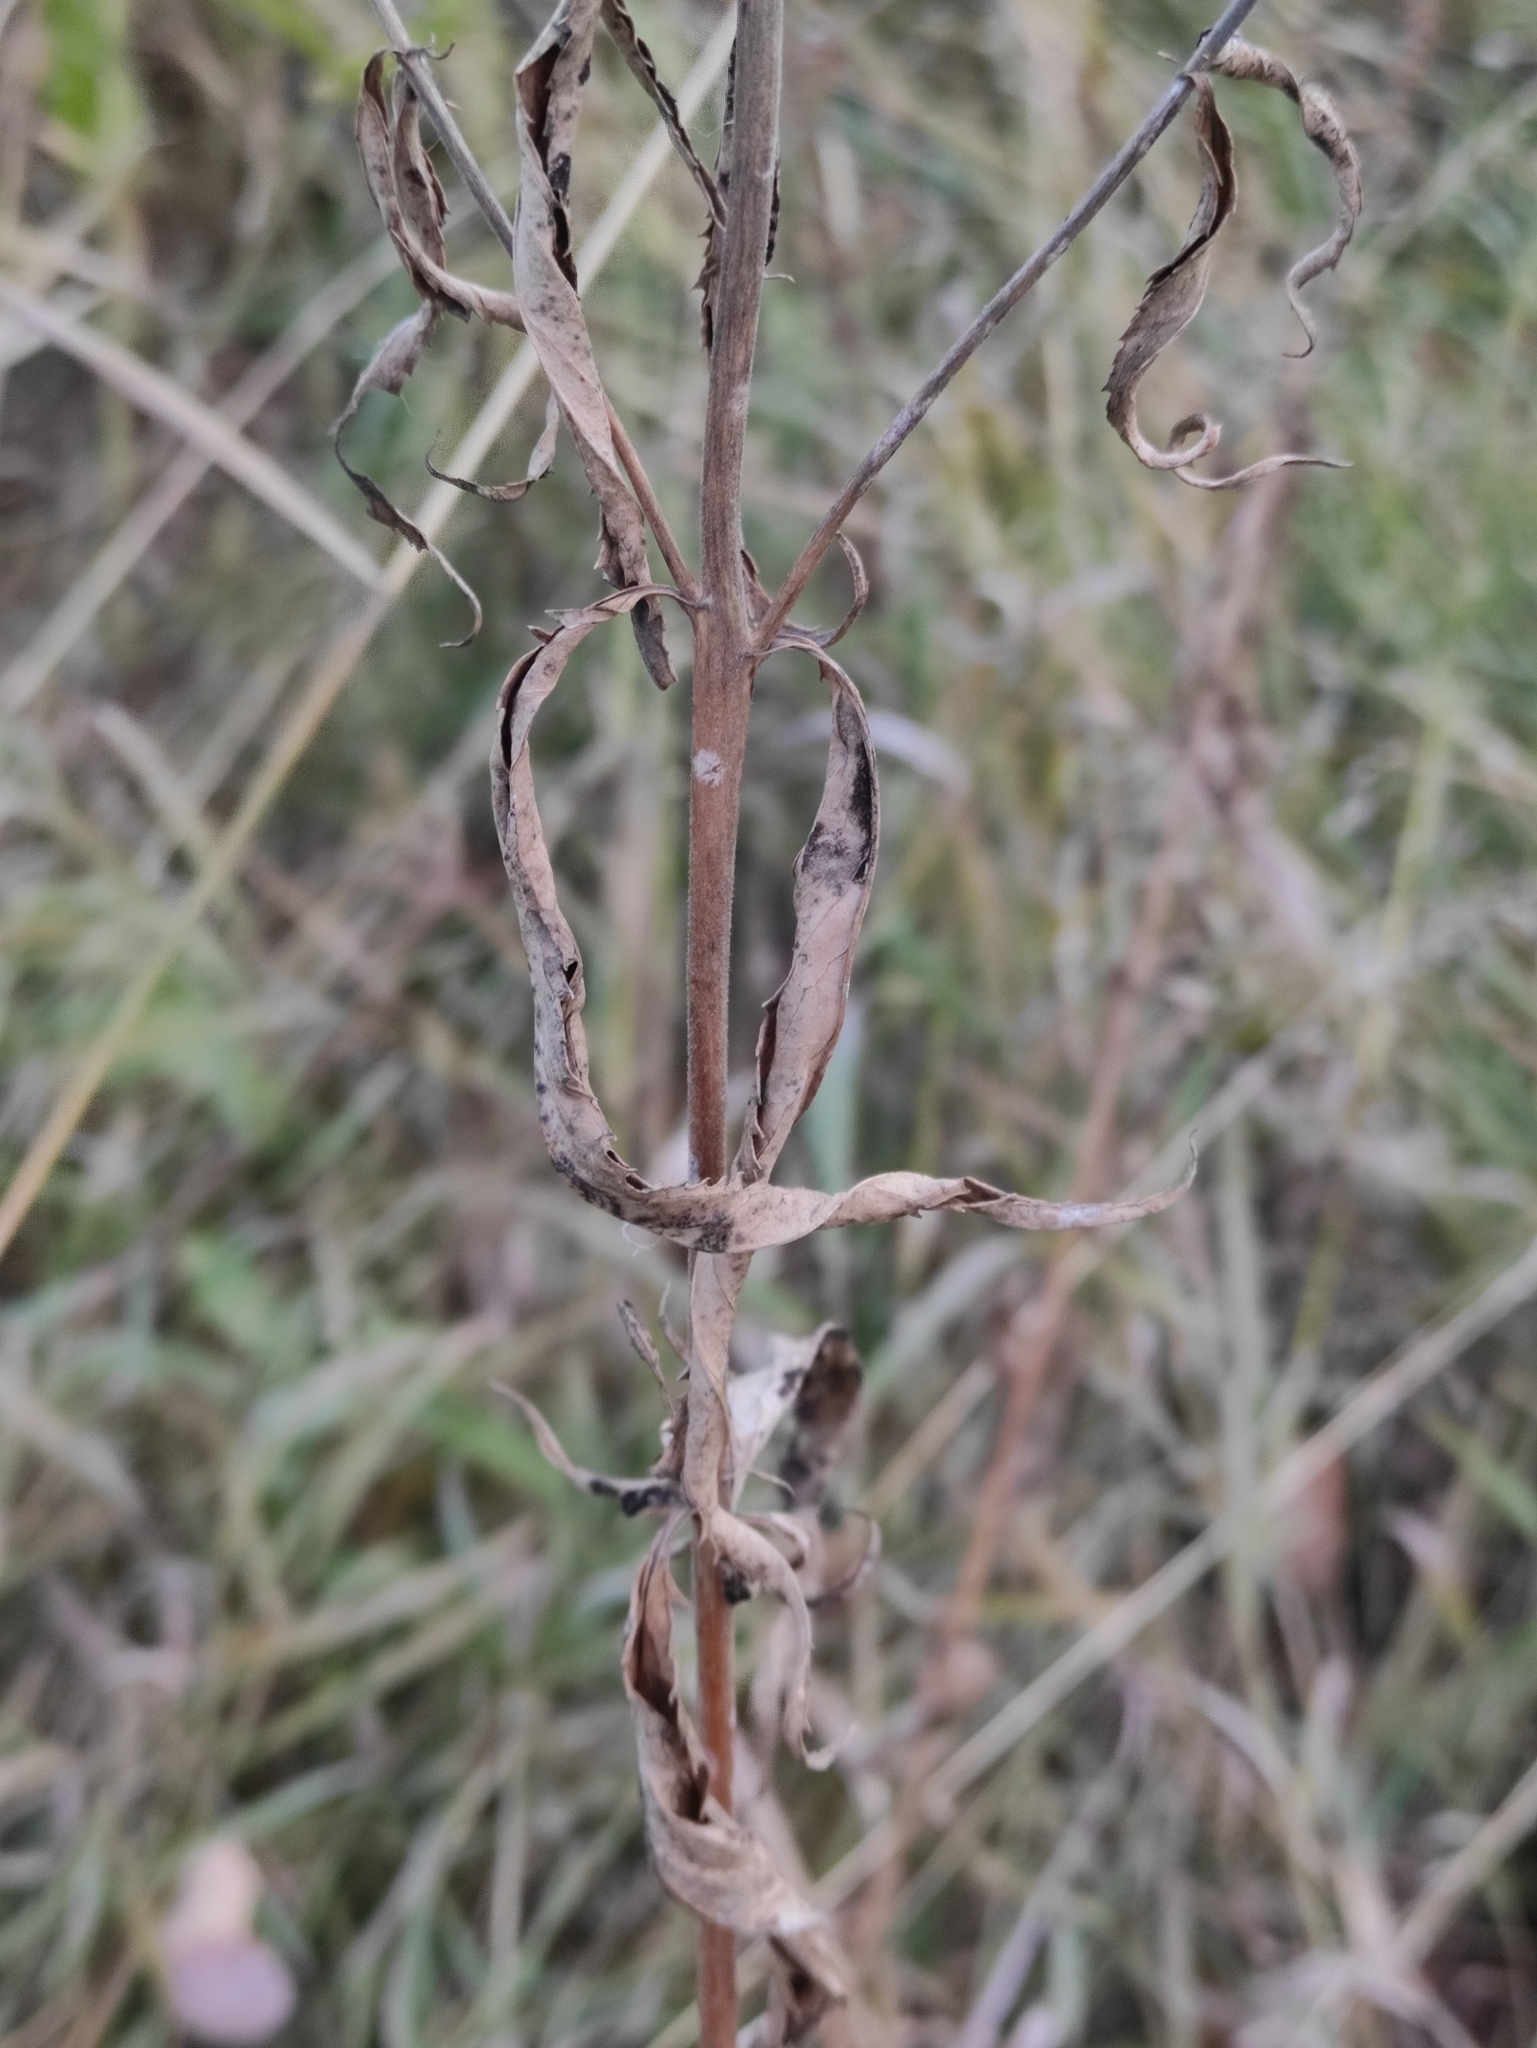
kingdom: Plantae
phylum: Tracheophyta
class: Magnoliopsida
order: Lamiales
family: Plantaginaceae
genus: Veronica
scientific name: Veronica longifolia
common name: Garden speedwell
